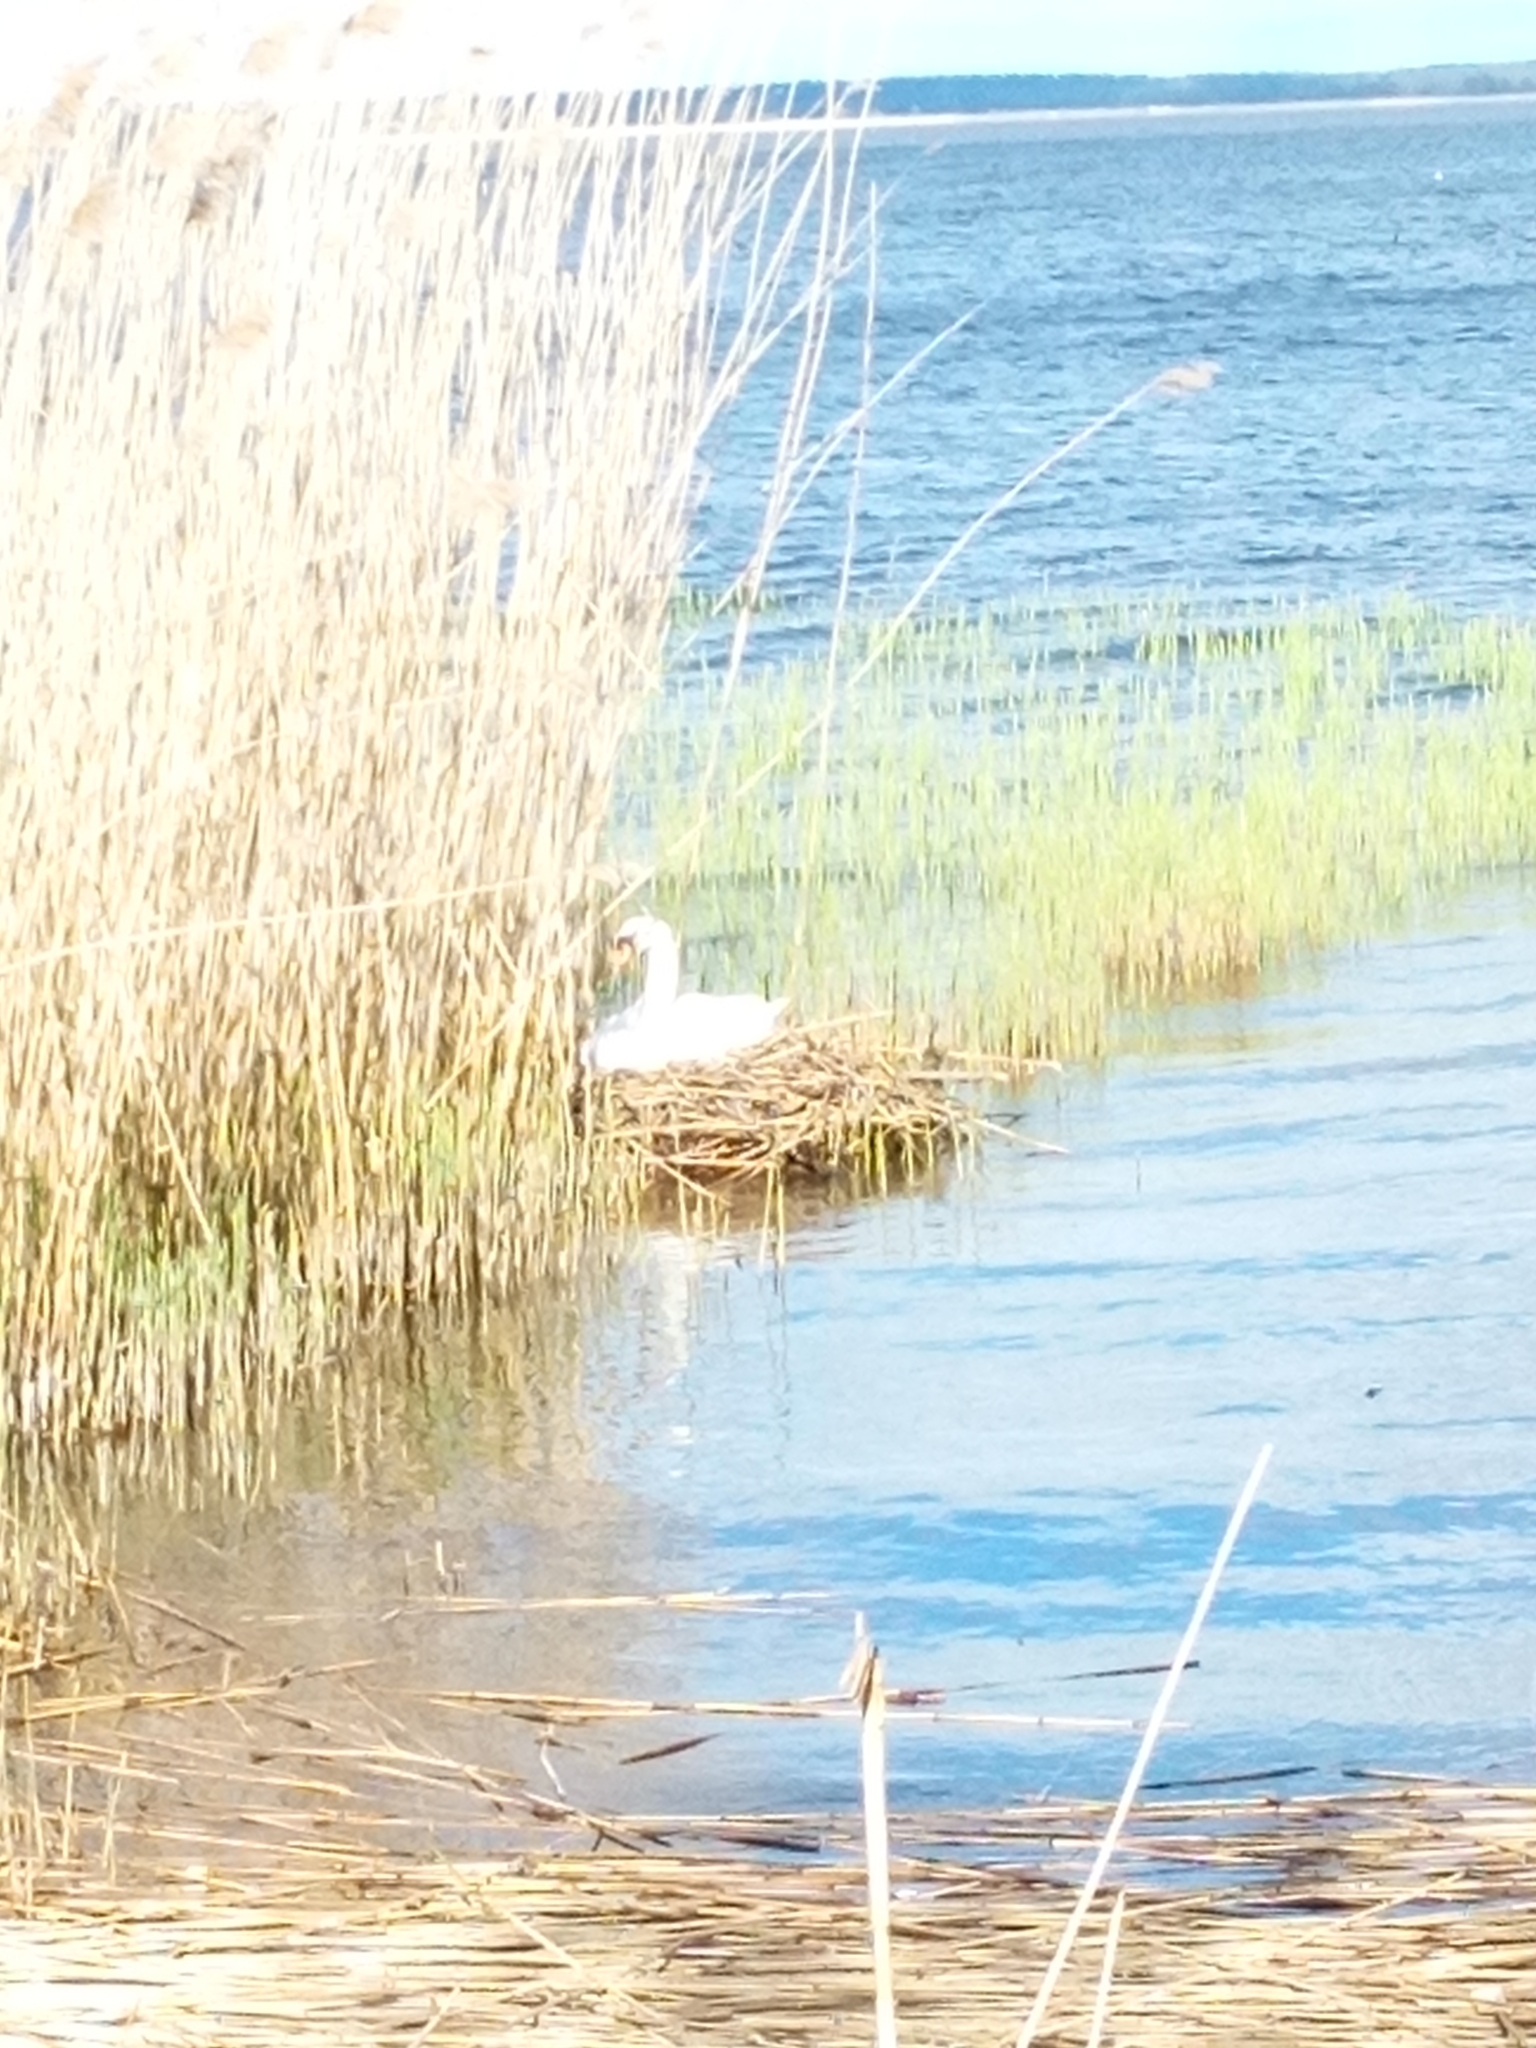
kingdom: Animalia
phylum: Chordata
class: Aves
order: Anseriformes
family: Anatidae
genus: Cygnus
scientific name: Cygnus olor
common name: Mute swan
